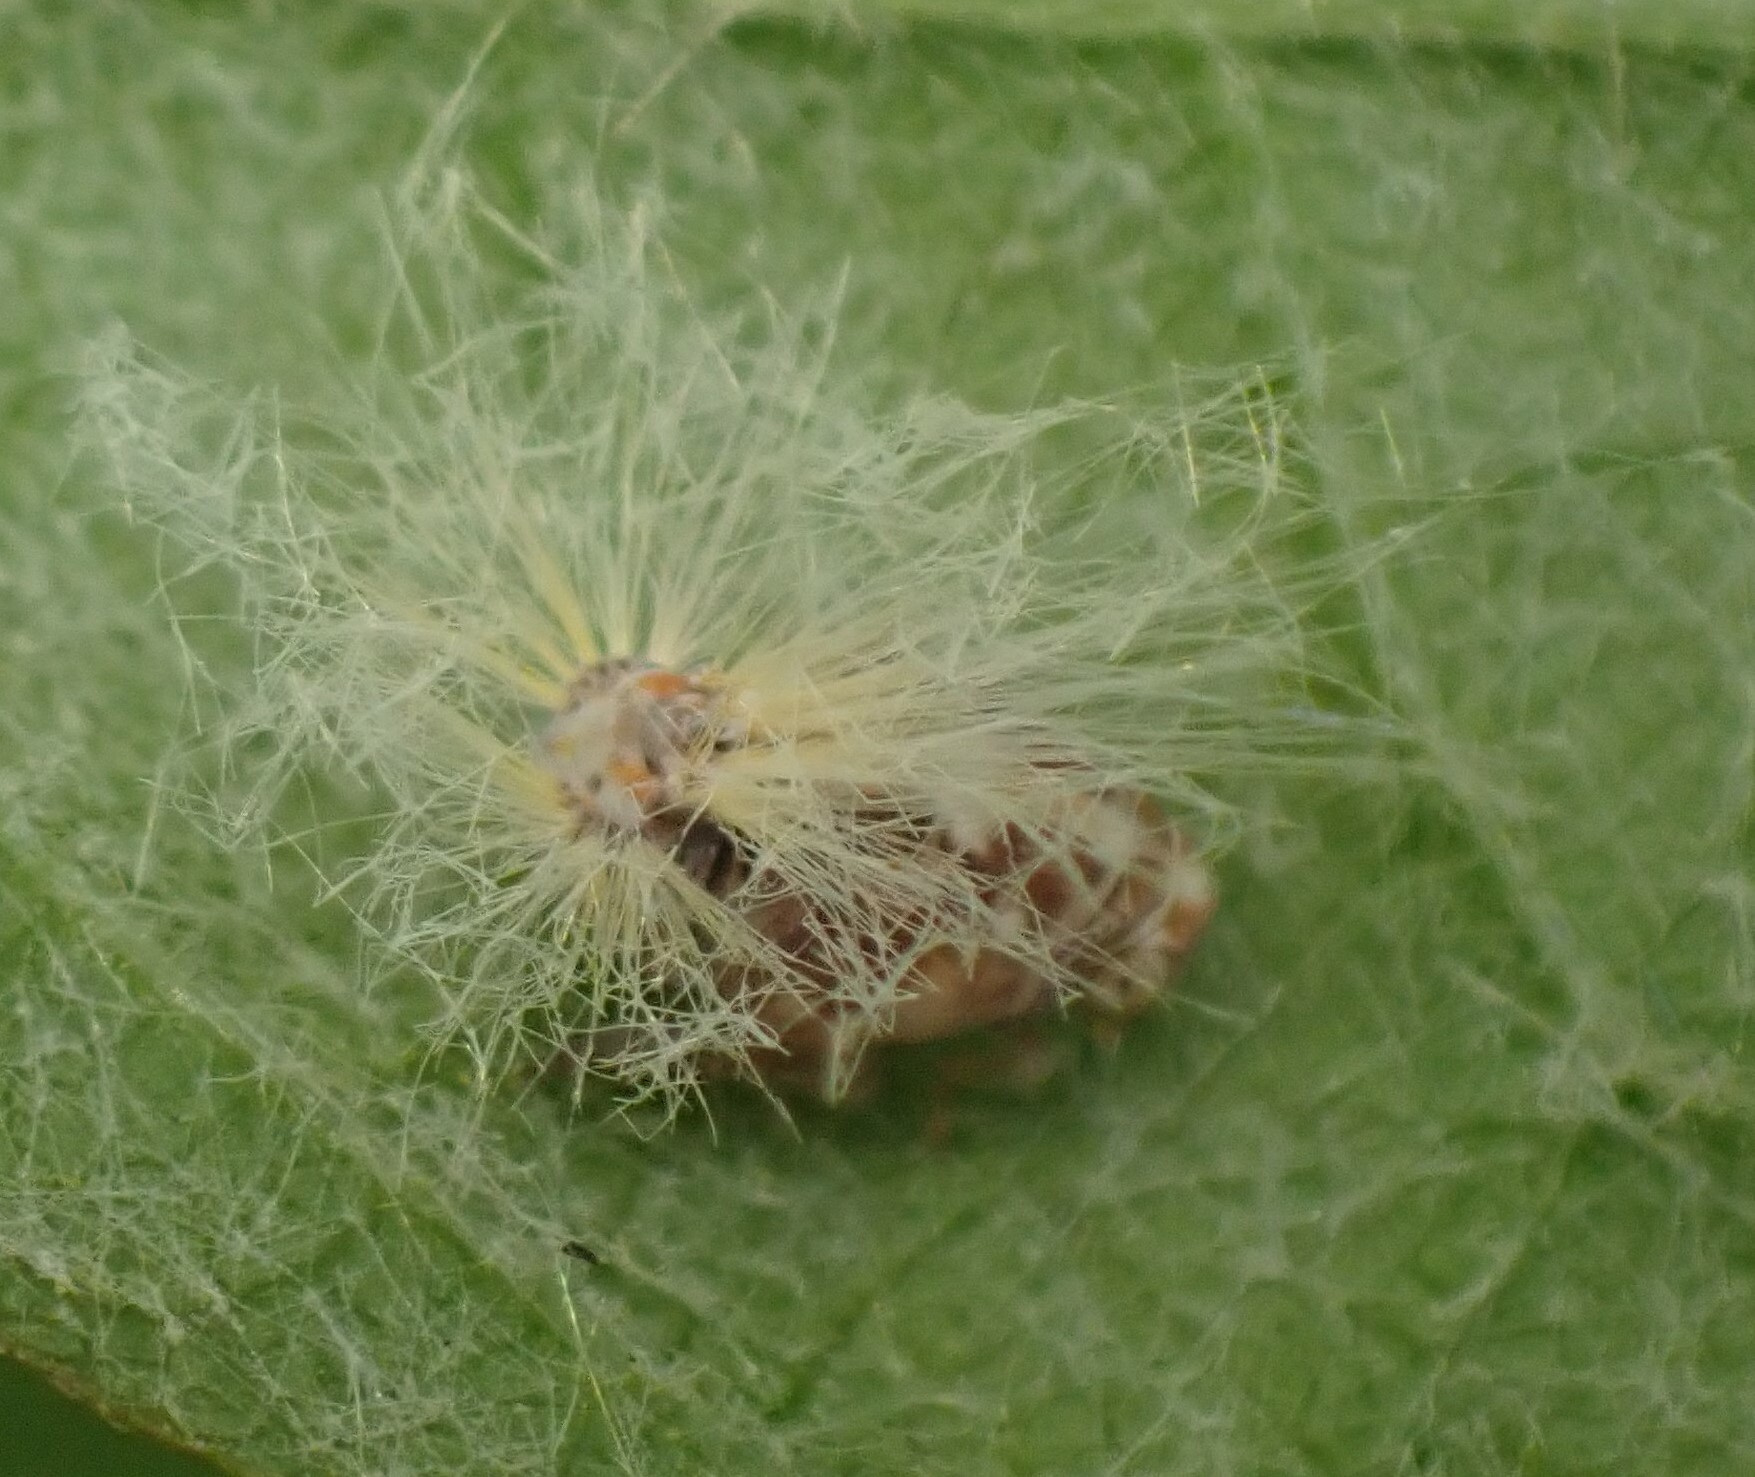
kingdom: Animalia
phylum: Arthropoda
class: Insecta
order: Hemiptera
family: Ricaniidae
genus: Scolypopa
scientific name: Scolypopa australis
